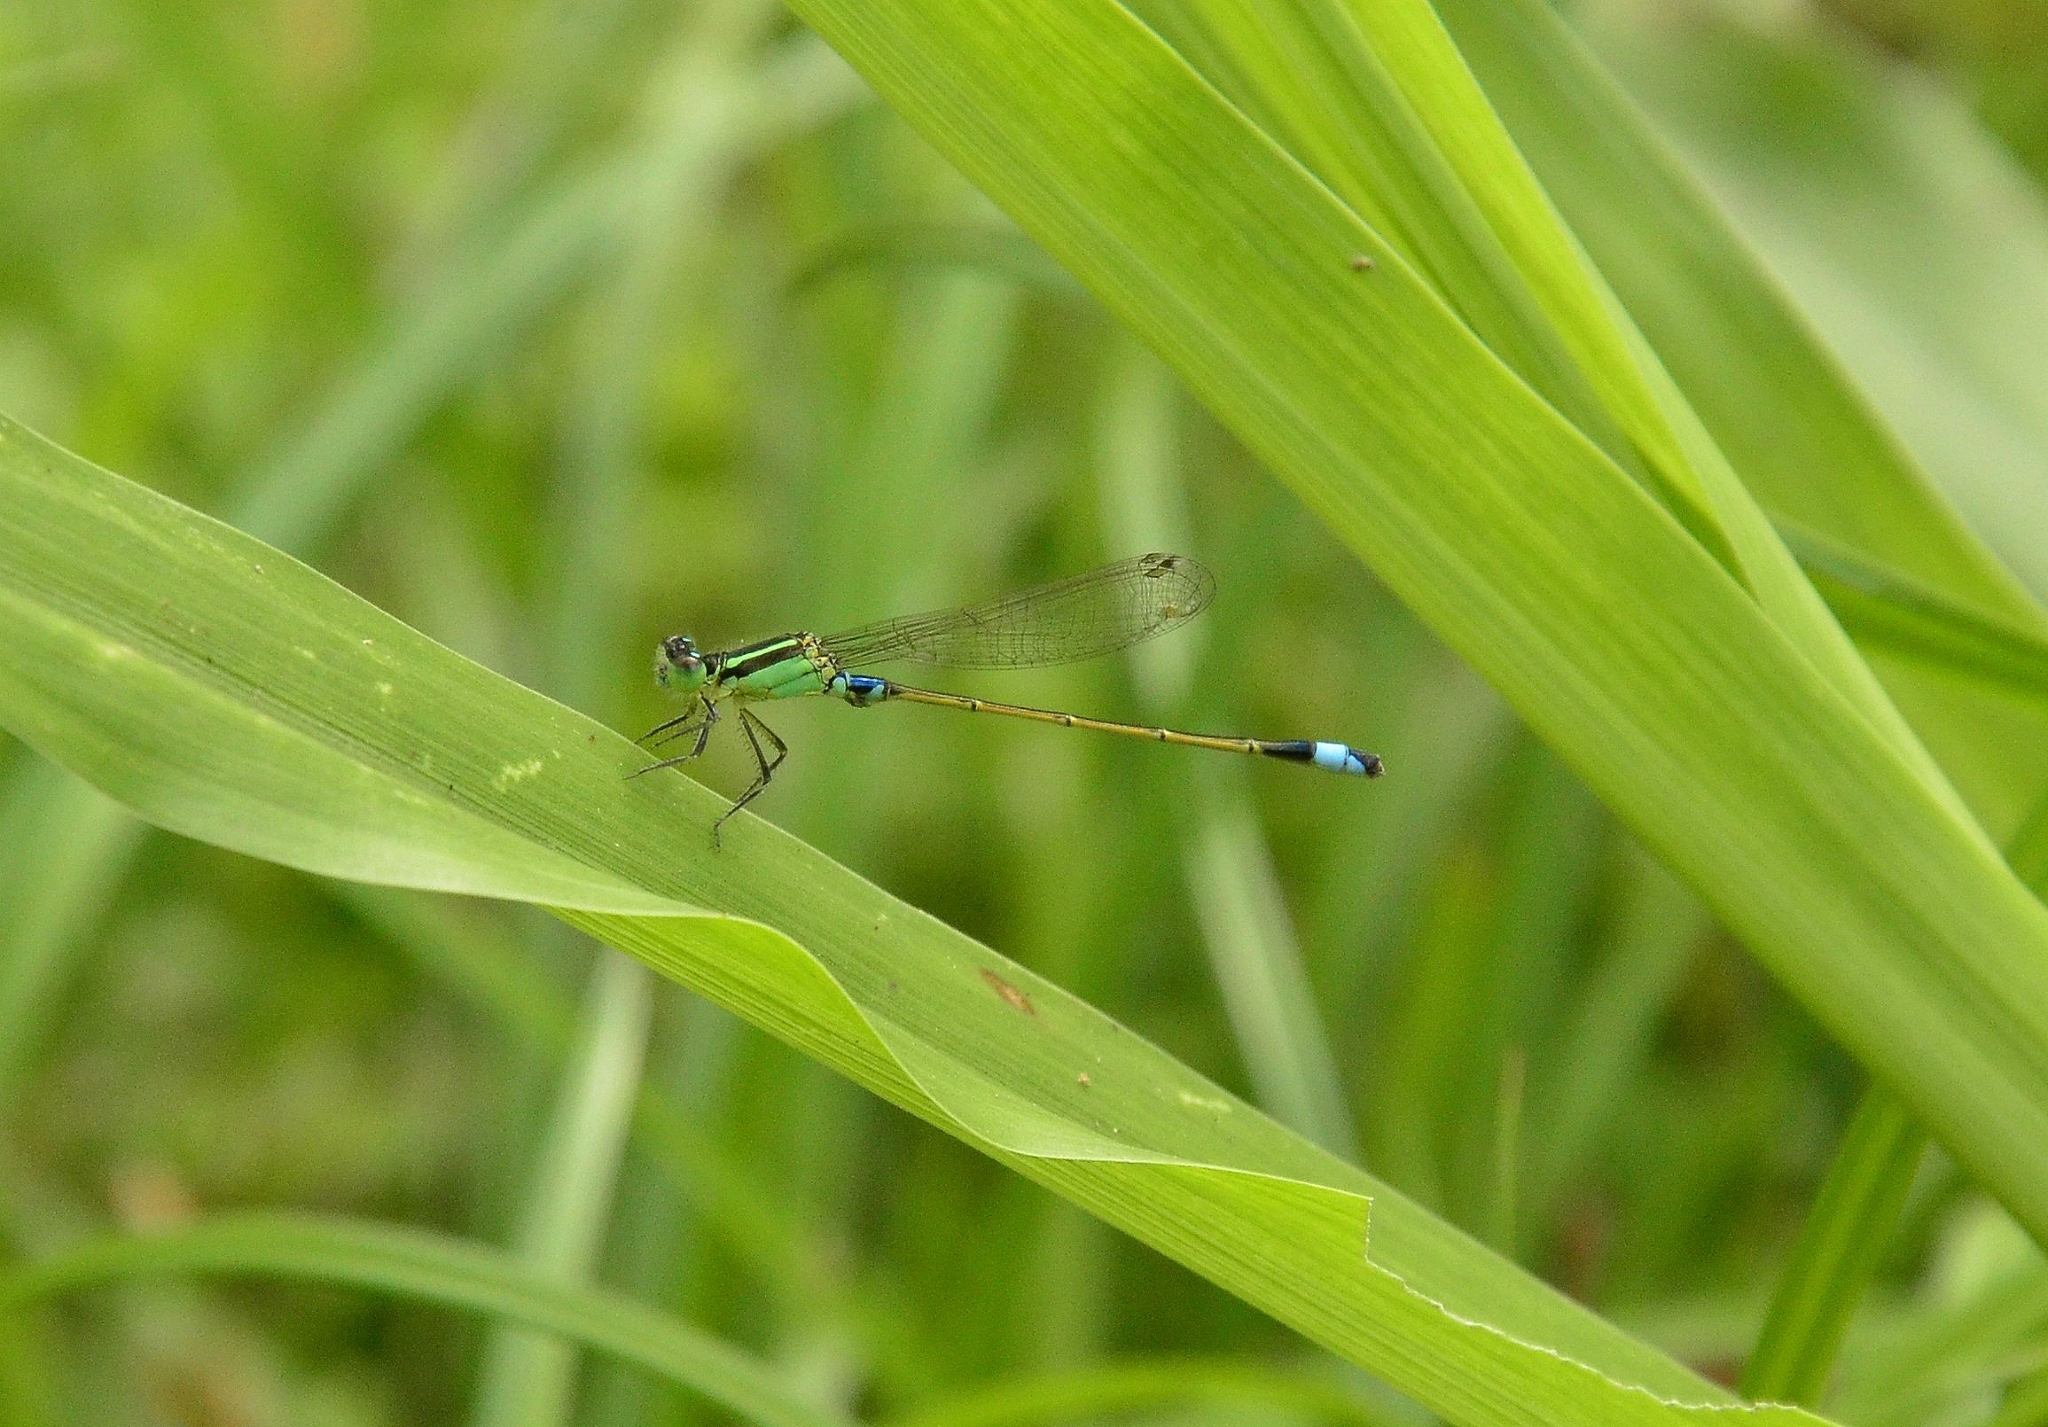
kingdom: Animalia
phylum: Arthropoda
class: Insecta
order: Odonata
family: Coenagrionidae
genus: Ischnura
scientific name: Ischnura senegalensis
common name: Tropical bluetail
